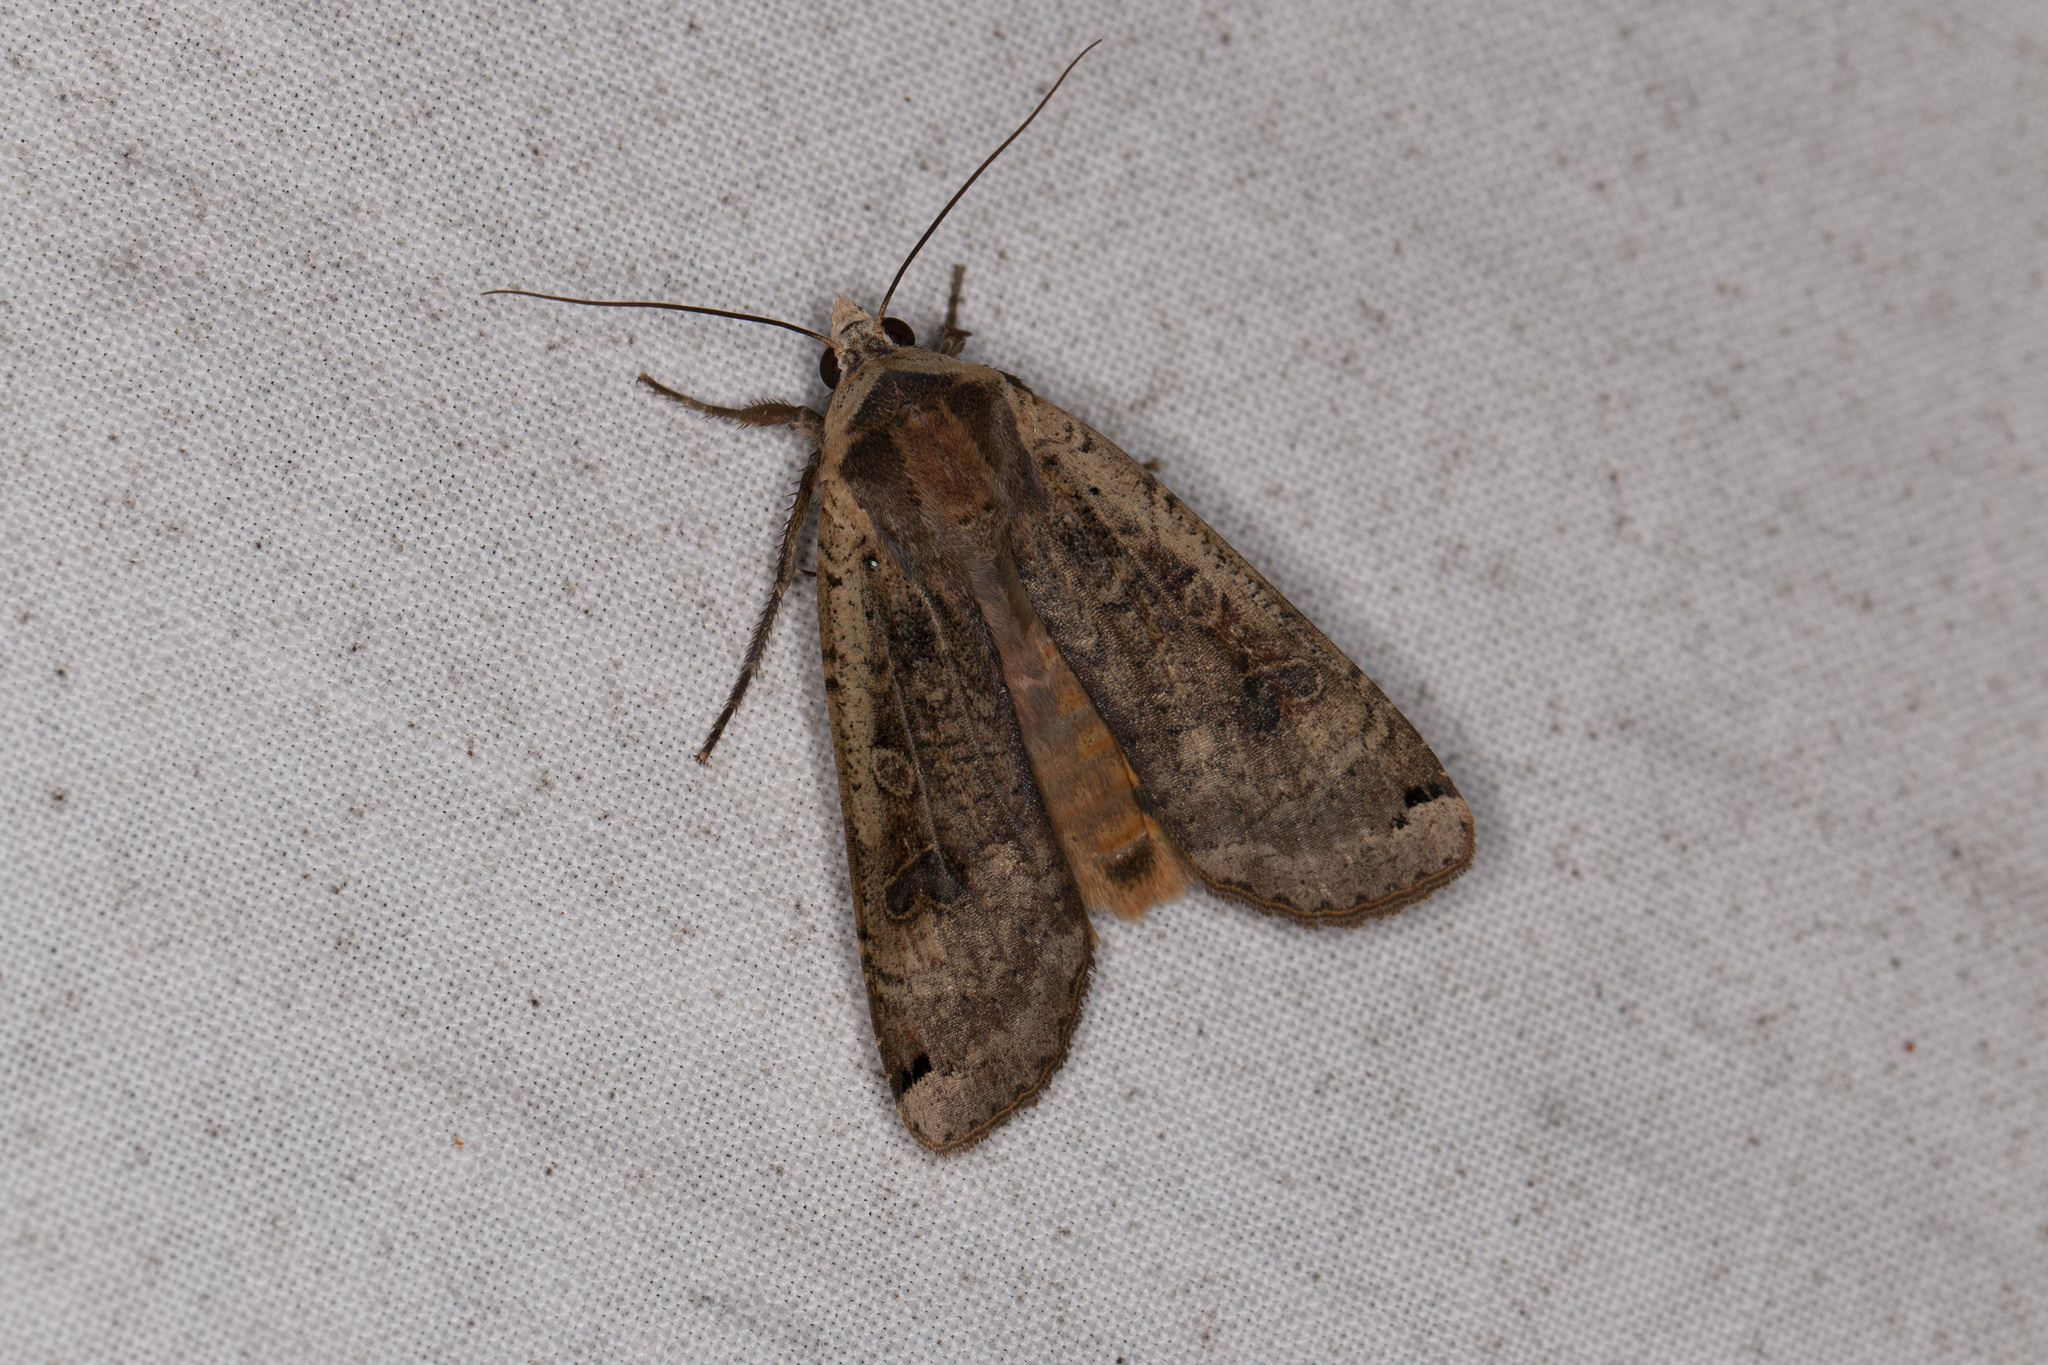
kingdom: Animalia
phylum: Arthropoda
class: Insecta
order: Lepidoptera
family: Noctuidae
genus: Noctua
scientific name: Noctua pronuba
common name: Large yellow underwing
